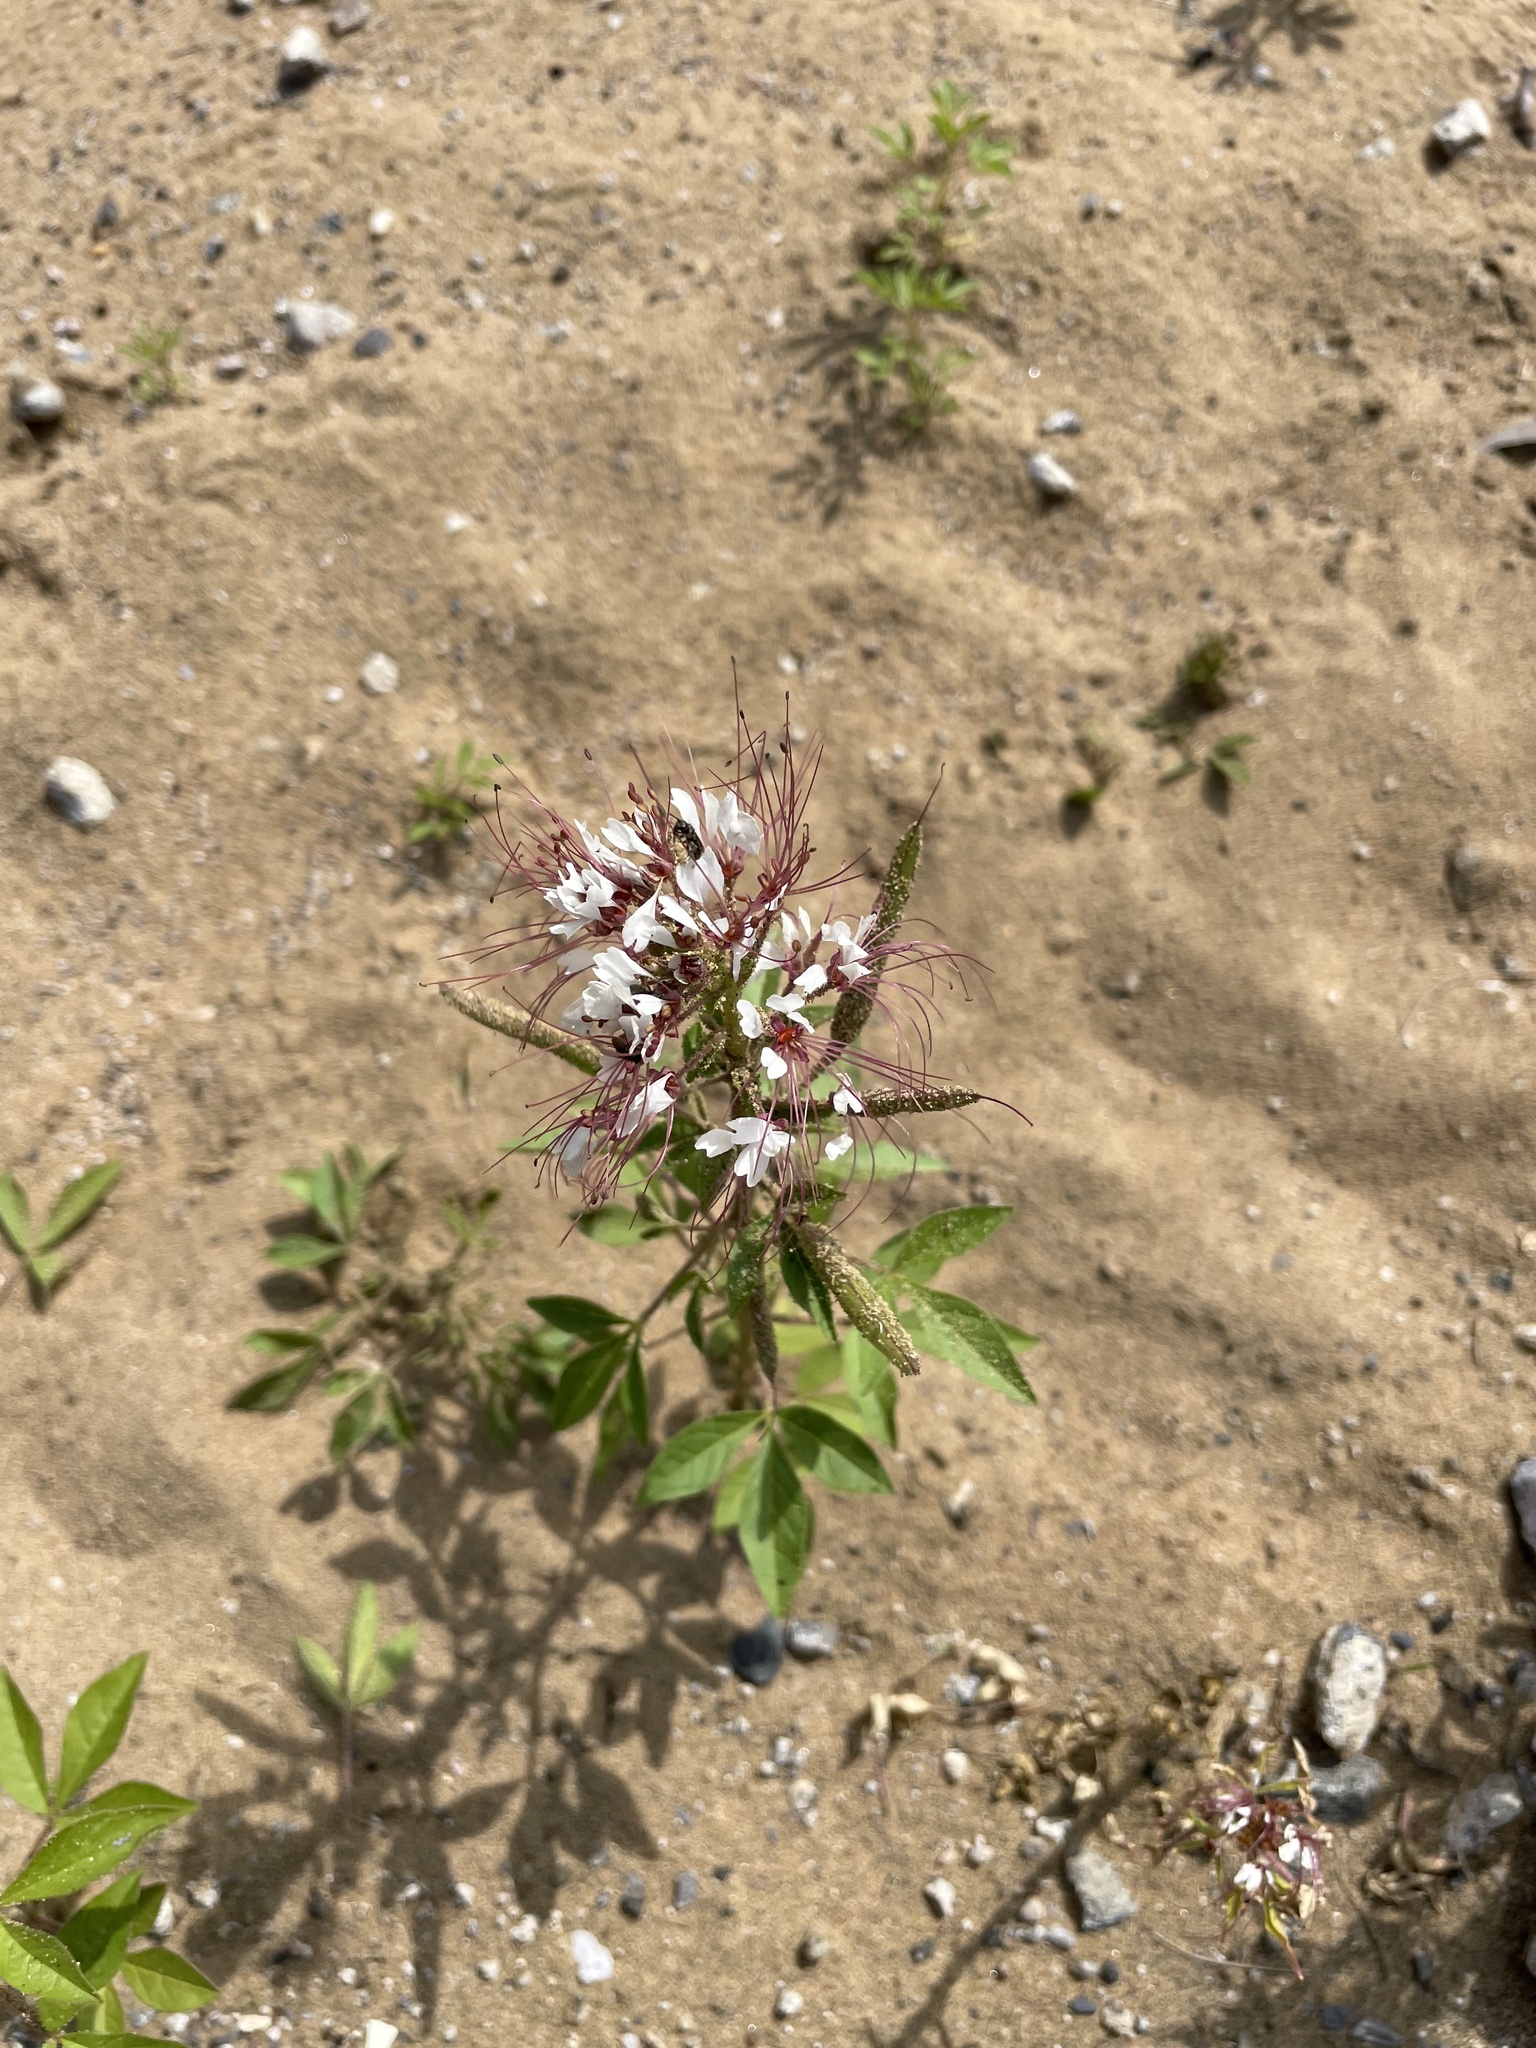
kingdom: Plantae
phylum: Tracheophyta
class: Magnoliopsida
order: Brassicales
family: Cleomaceae
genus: Polanisia
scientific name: Polanisia trachysperma
